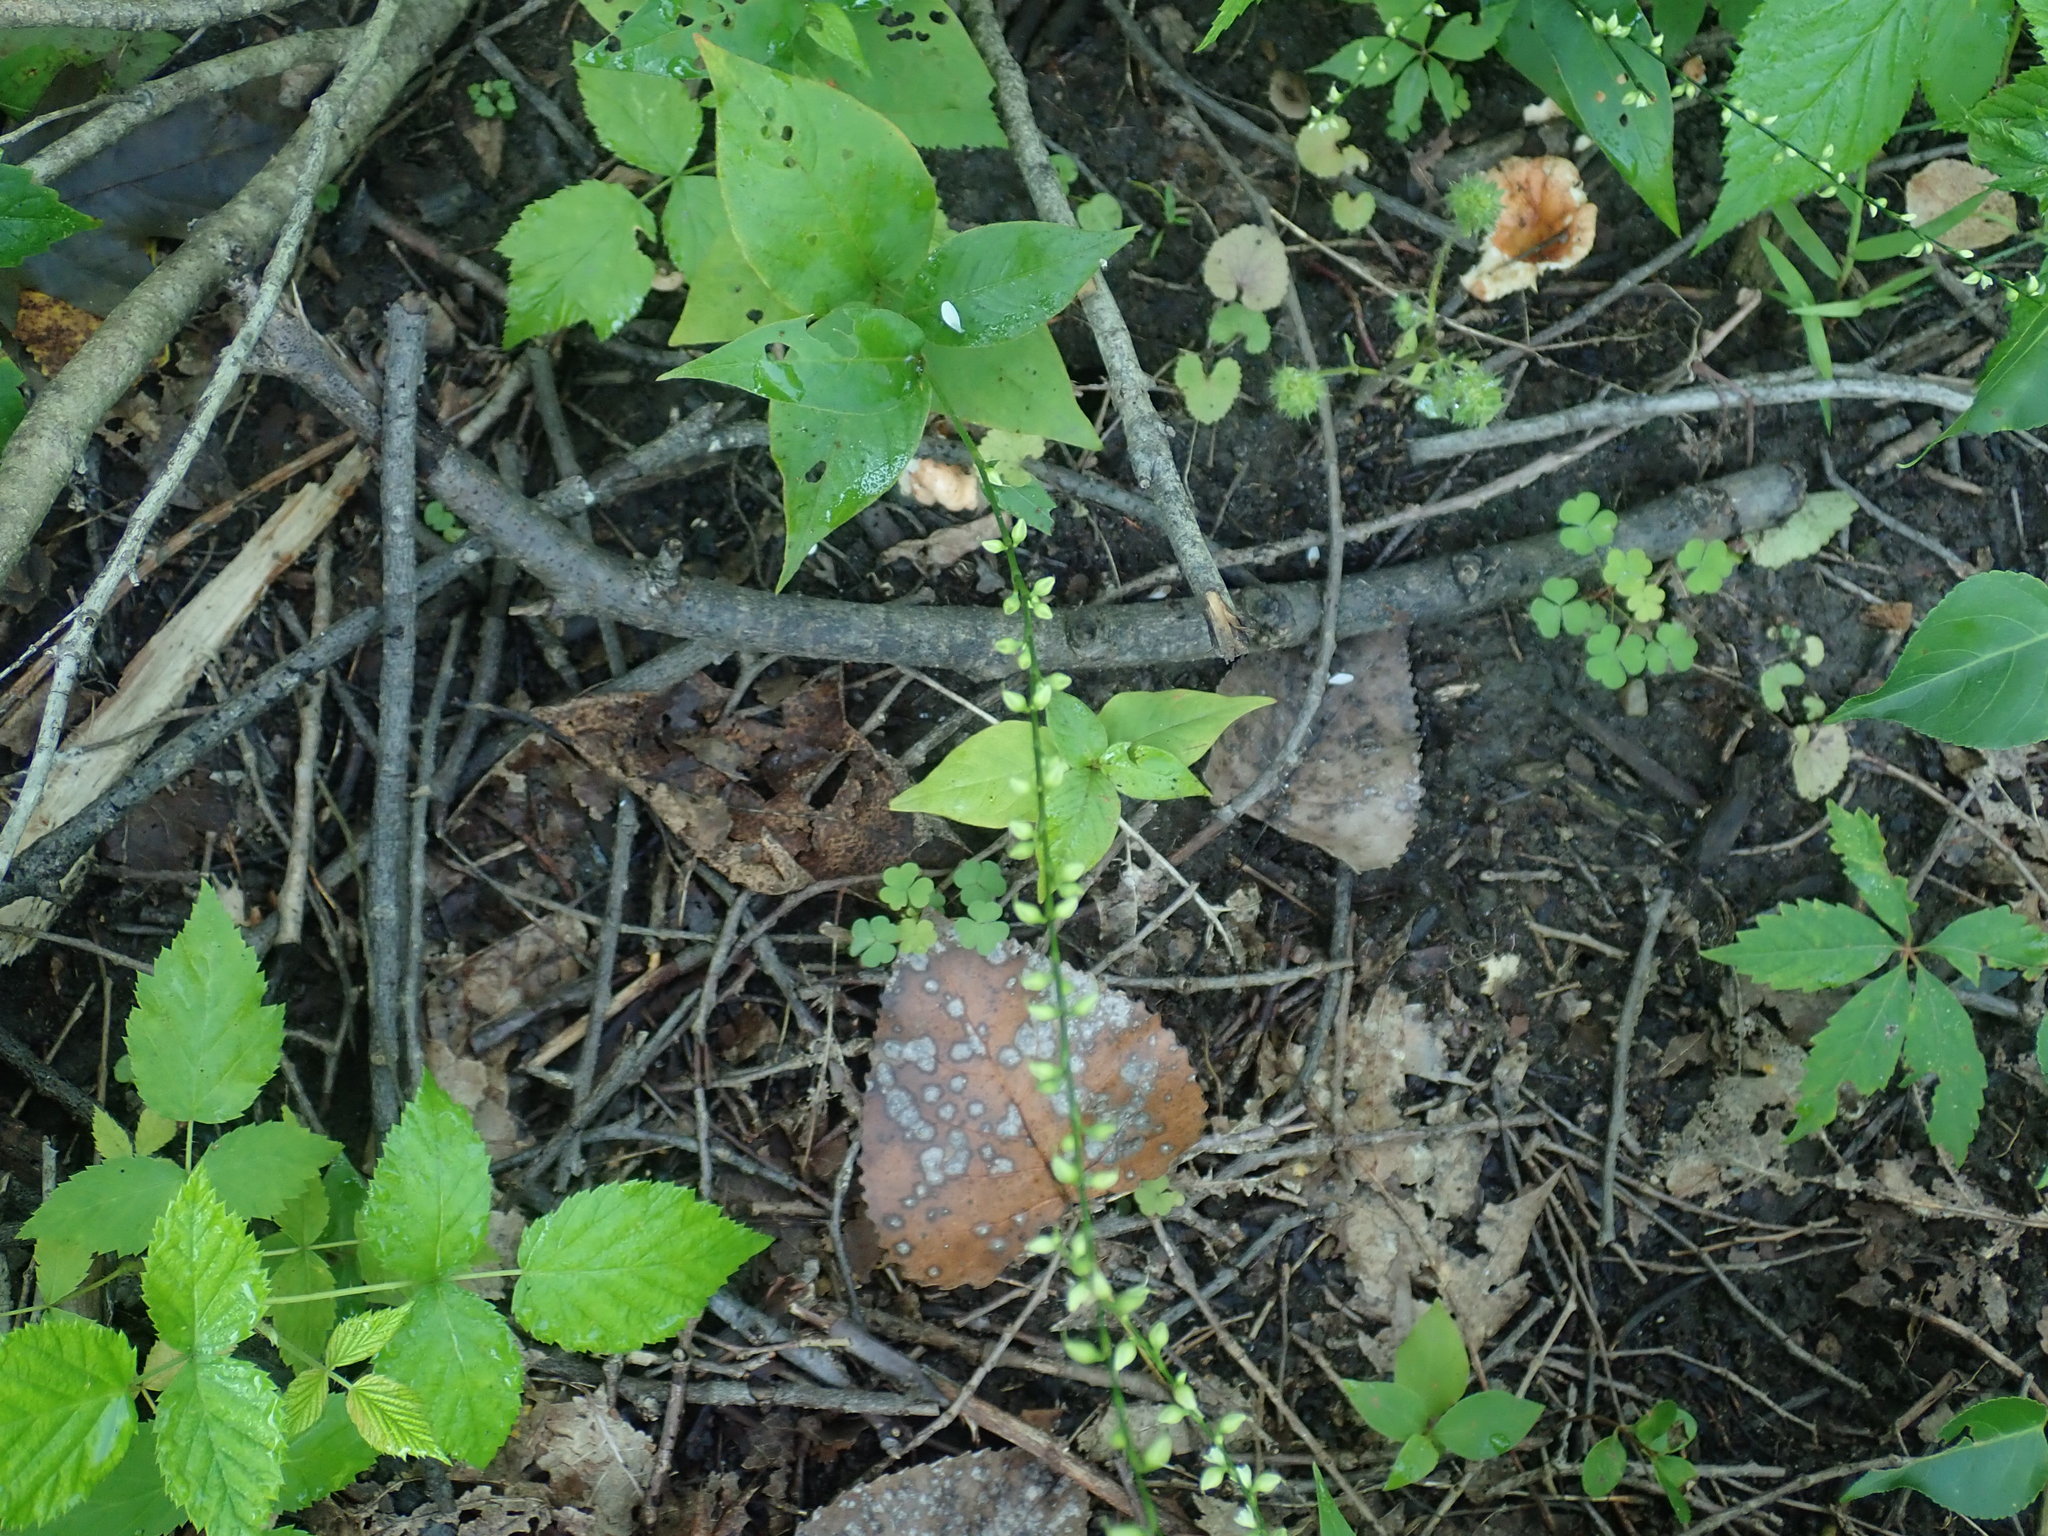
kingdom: Plantae
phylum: Tracheophyta
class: Magnoliopsida
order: Caryophyllales
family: Polygonaceae
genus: Persicaria
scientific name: Persicaria virginiana
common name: Jumpseed
